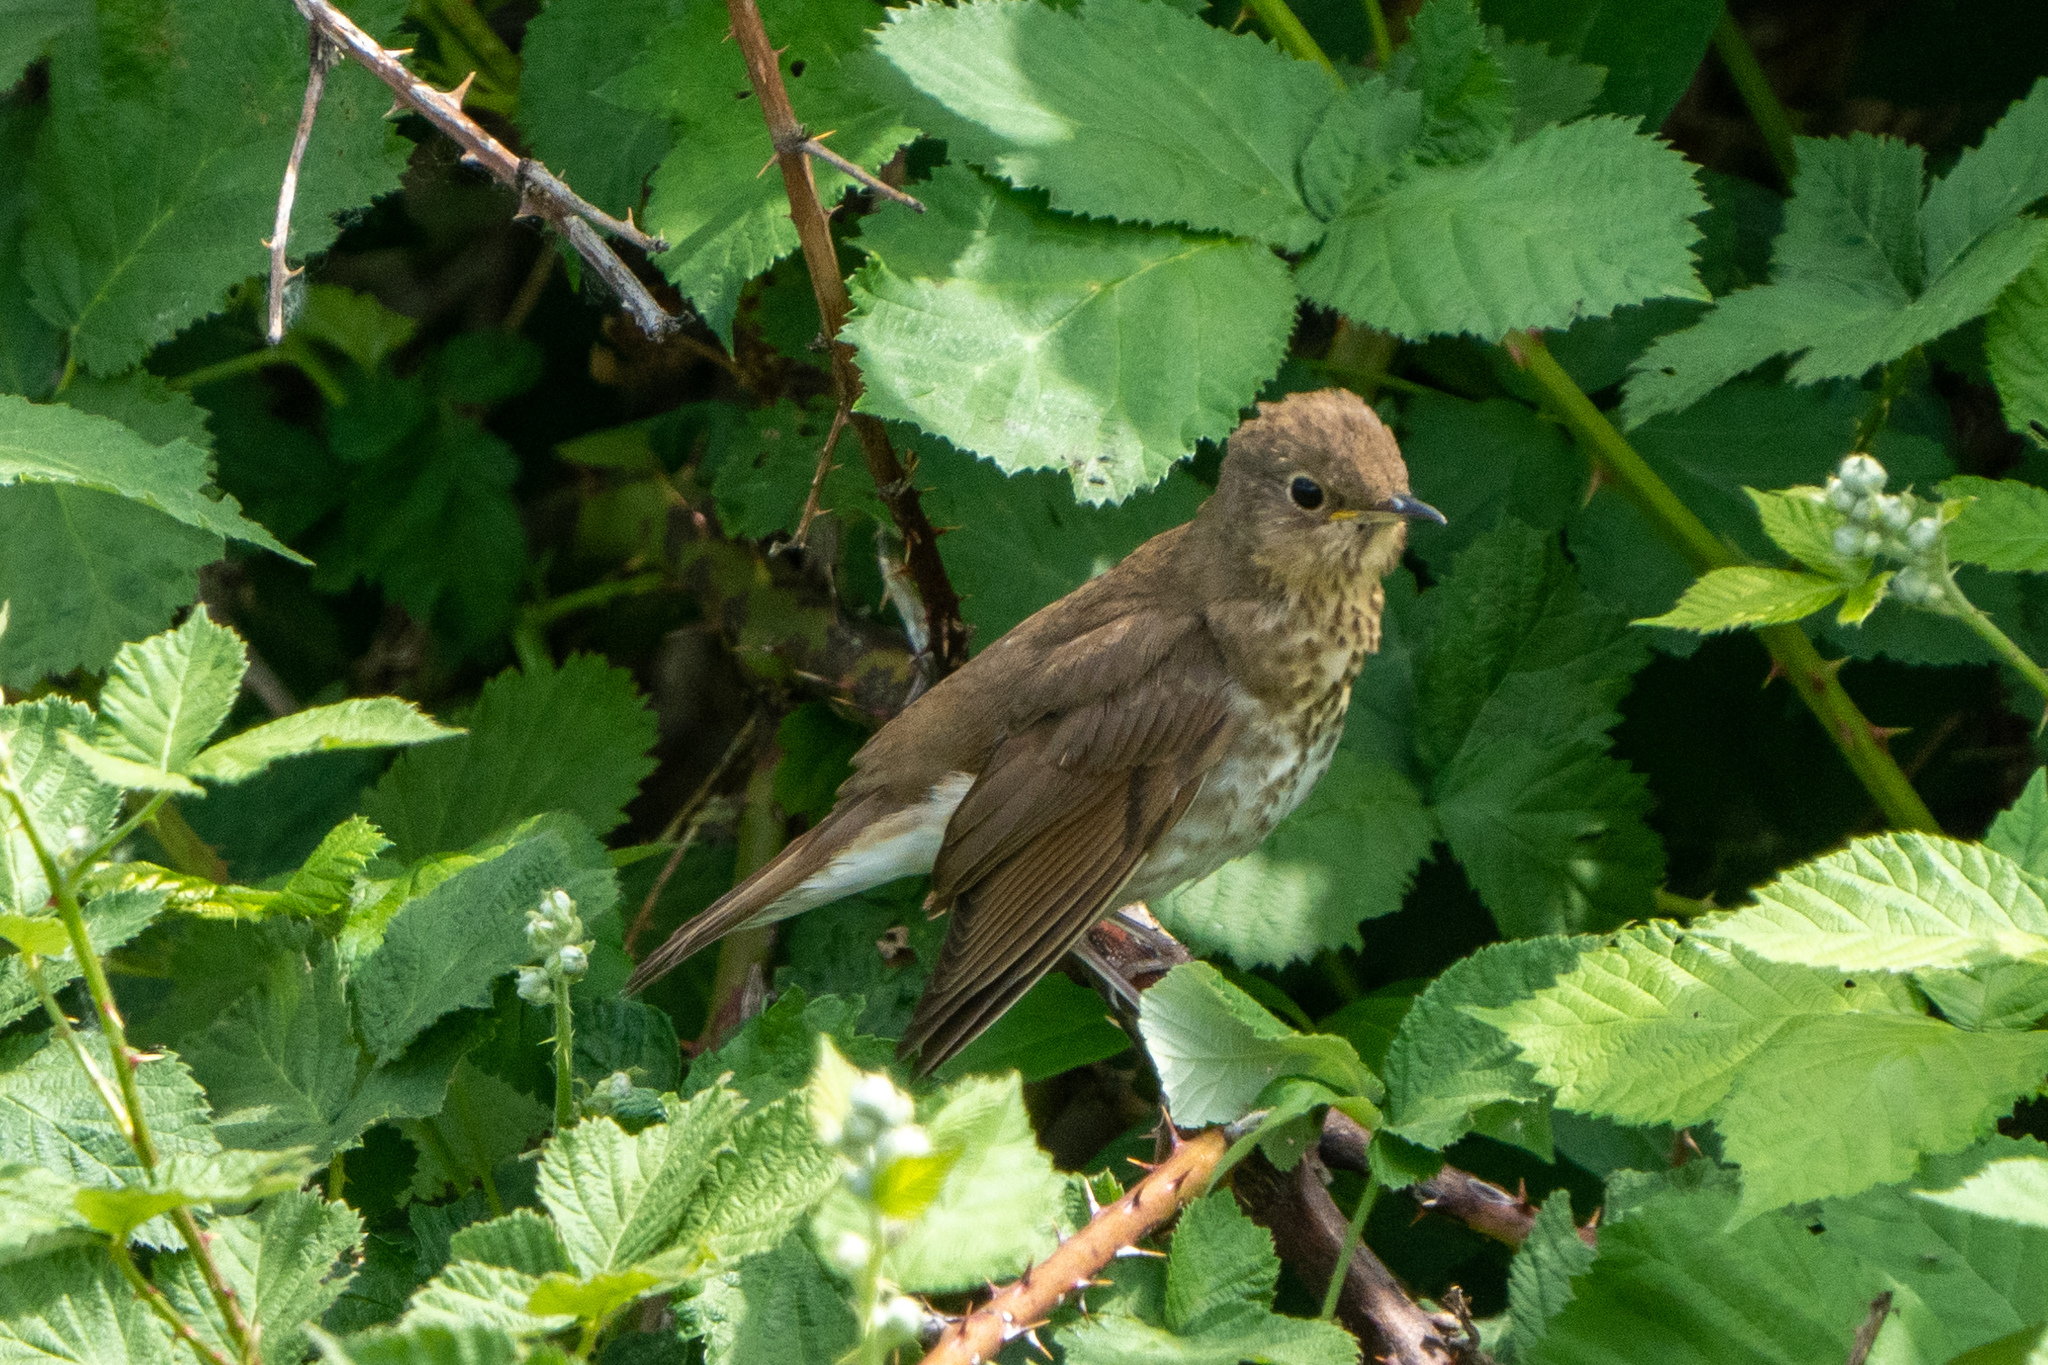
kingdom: Animalia
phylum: Chordata
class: Aves
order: Passeriformes
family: Turdidae
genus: Catharus
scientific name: Catharus ustulatus
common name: Swainson's thrush
